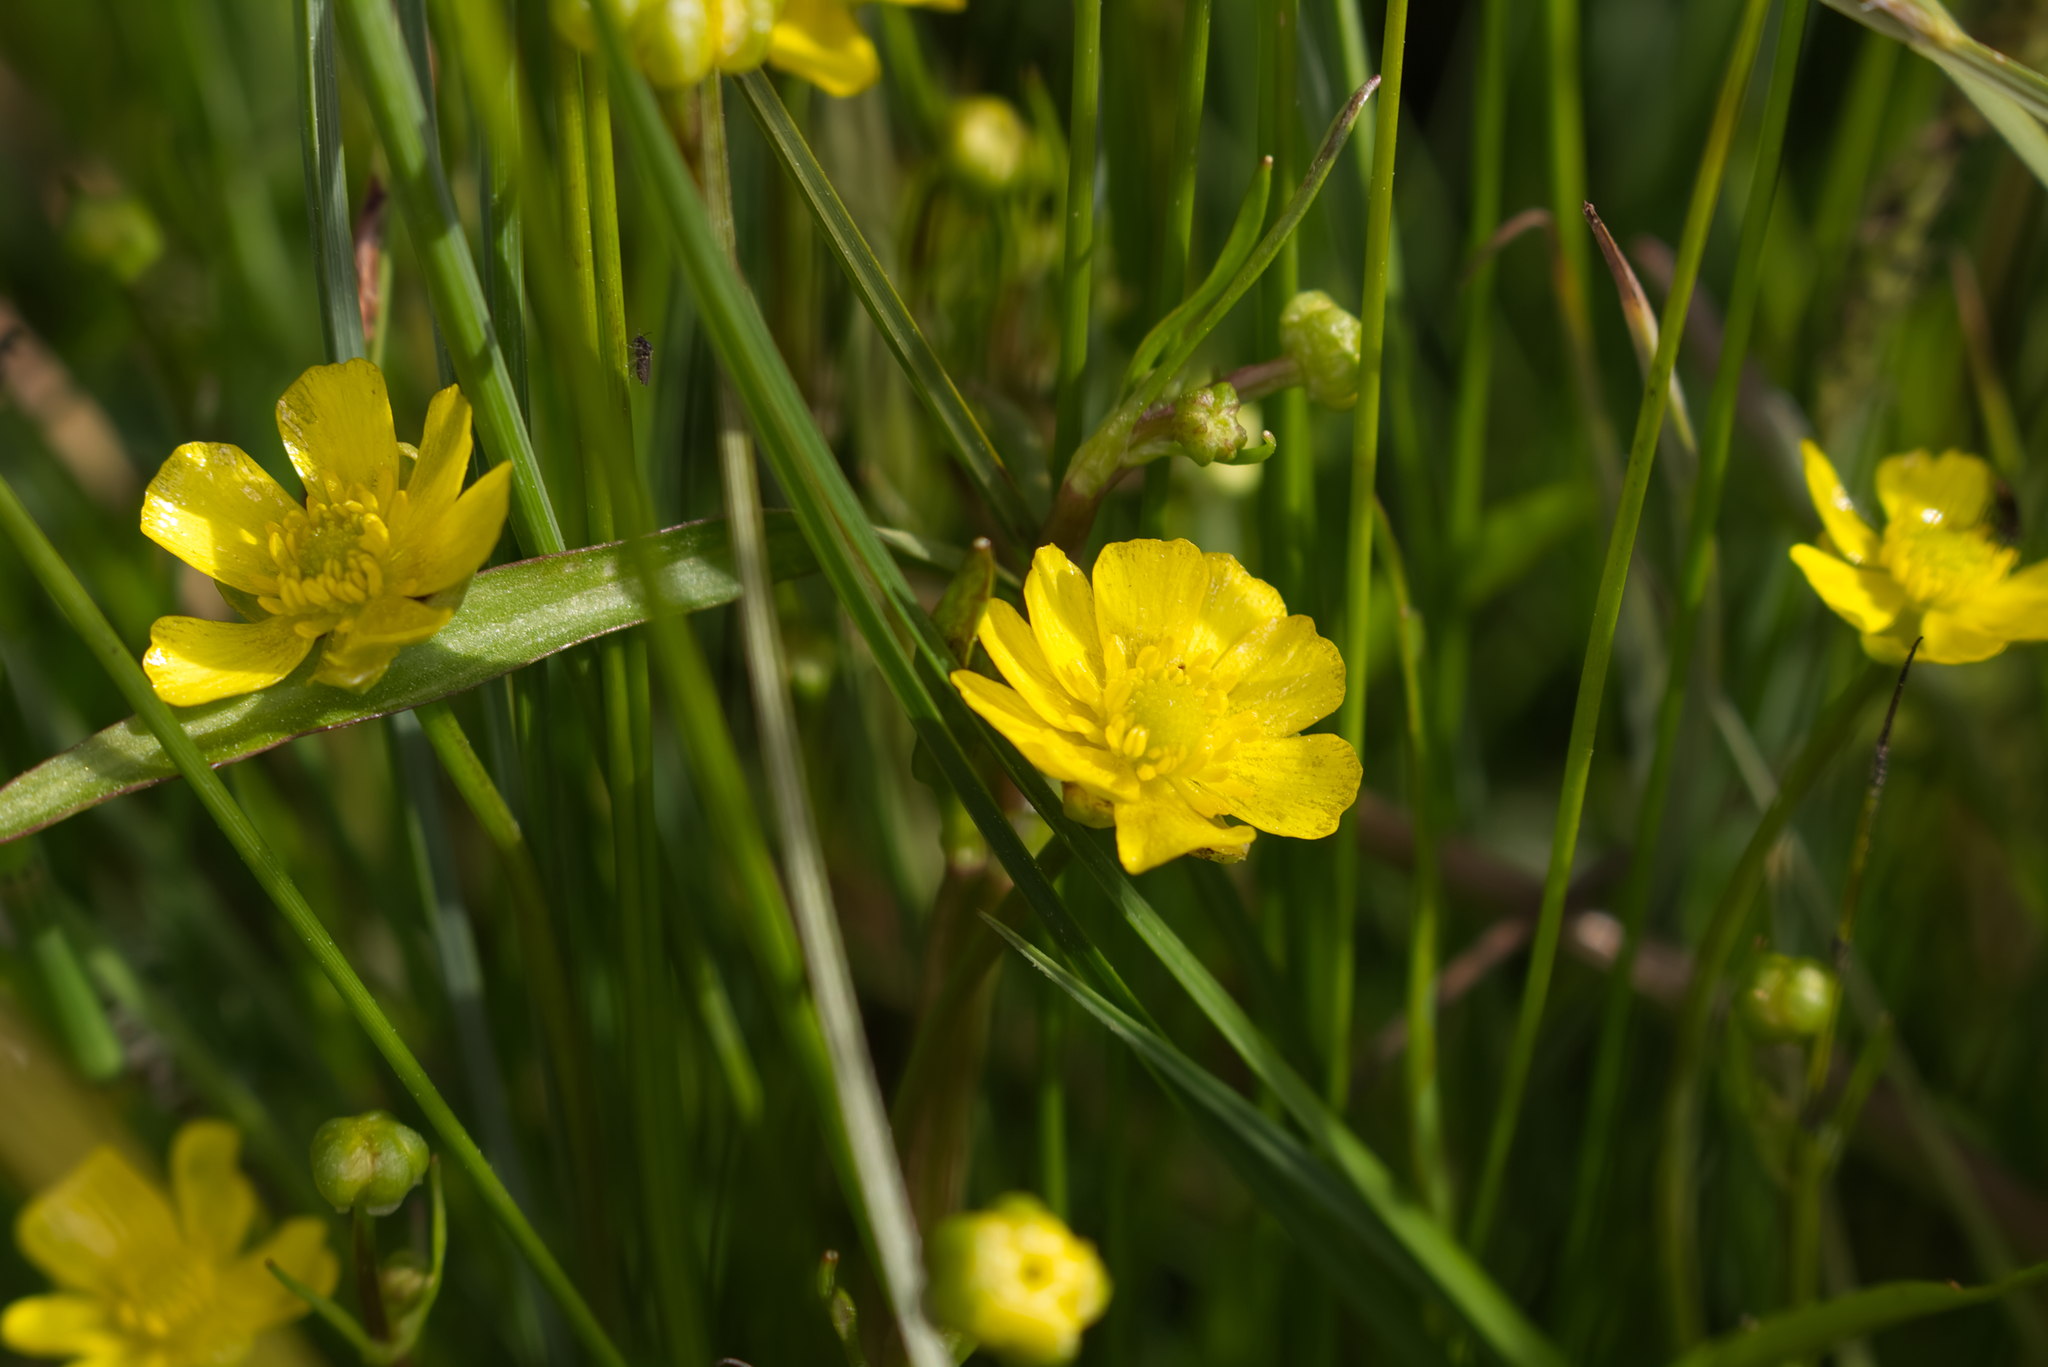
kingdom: Plantae
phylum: Tracheophyta
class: Magnoliopsida
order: Ranunculales
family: Ranunculaceae
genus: Ranunculus
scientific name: Ranunculus flammula
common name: Lesser spearwort
